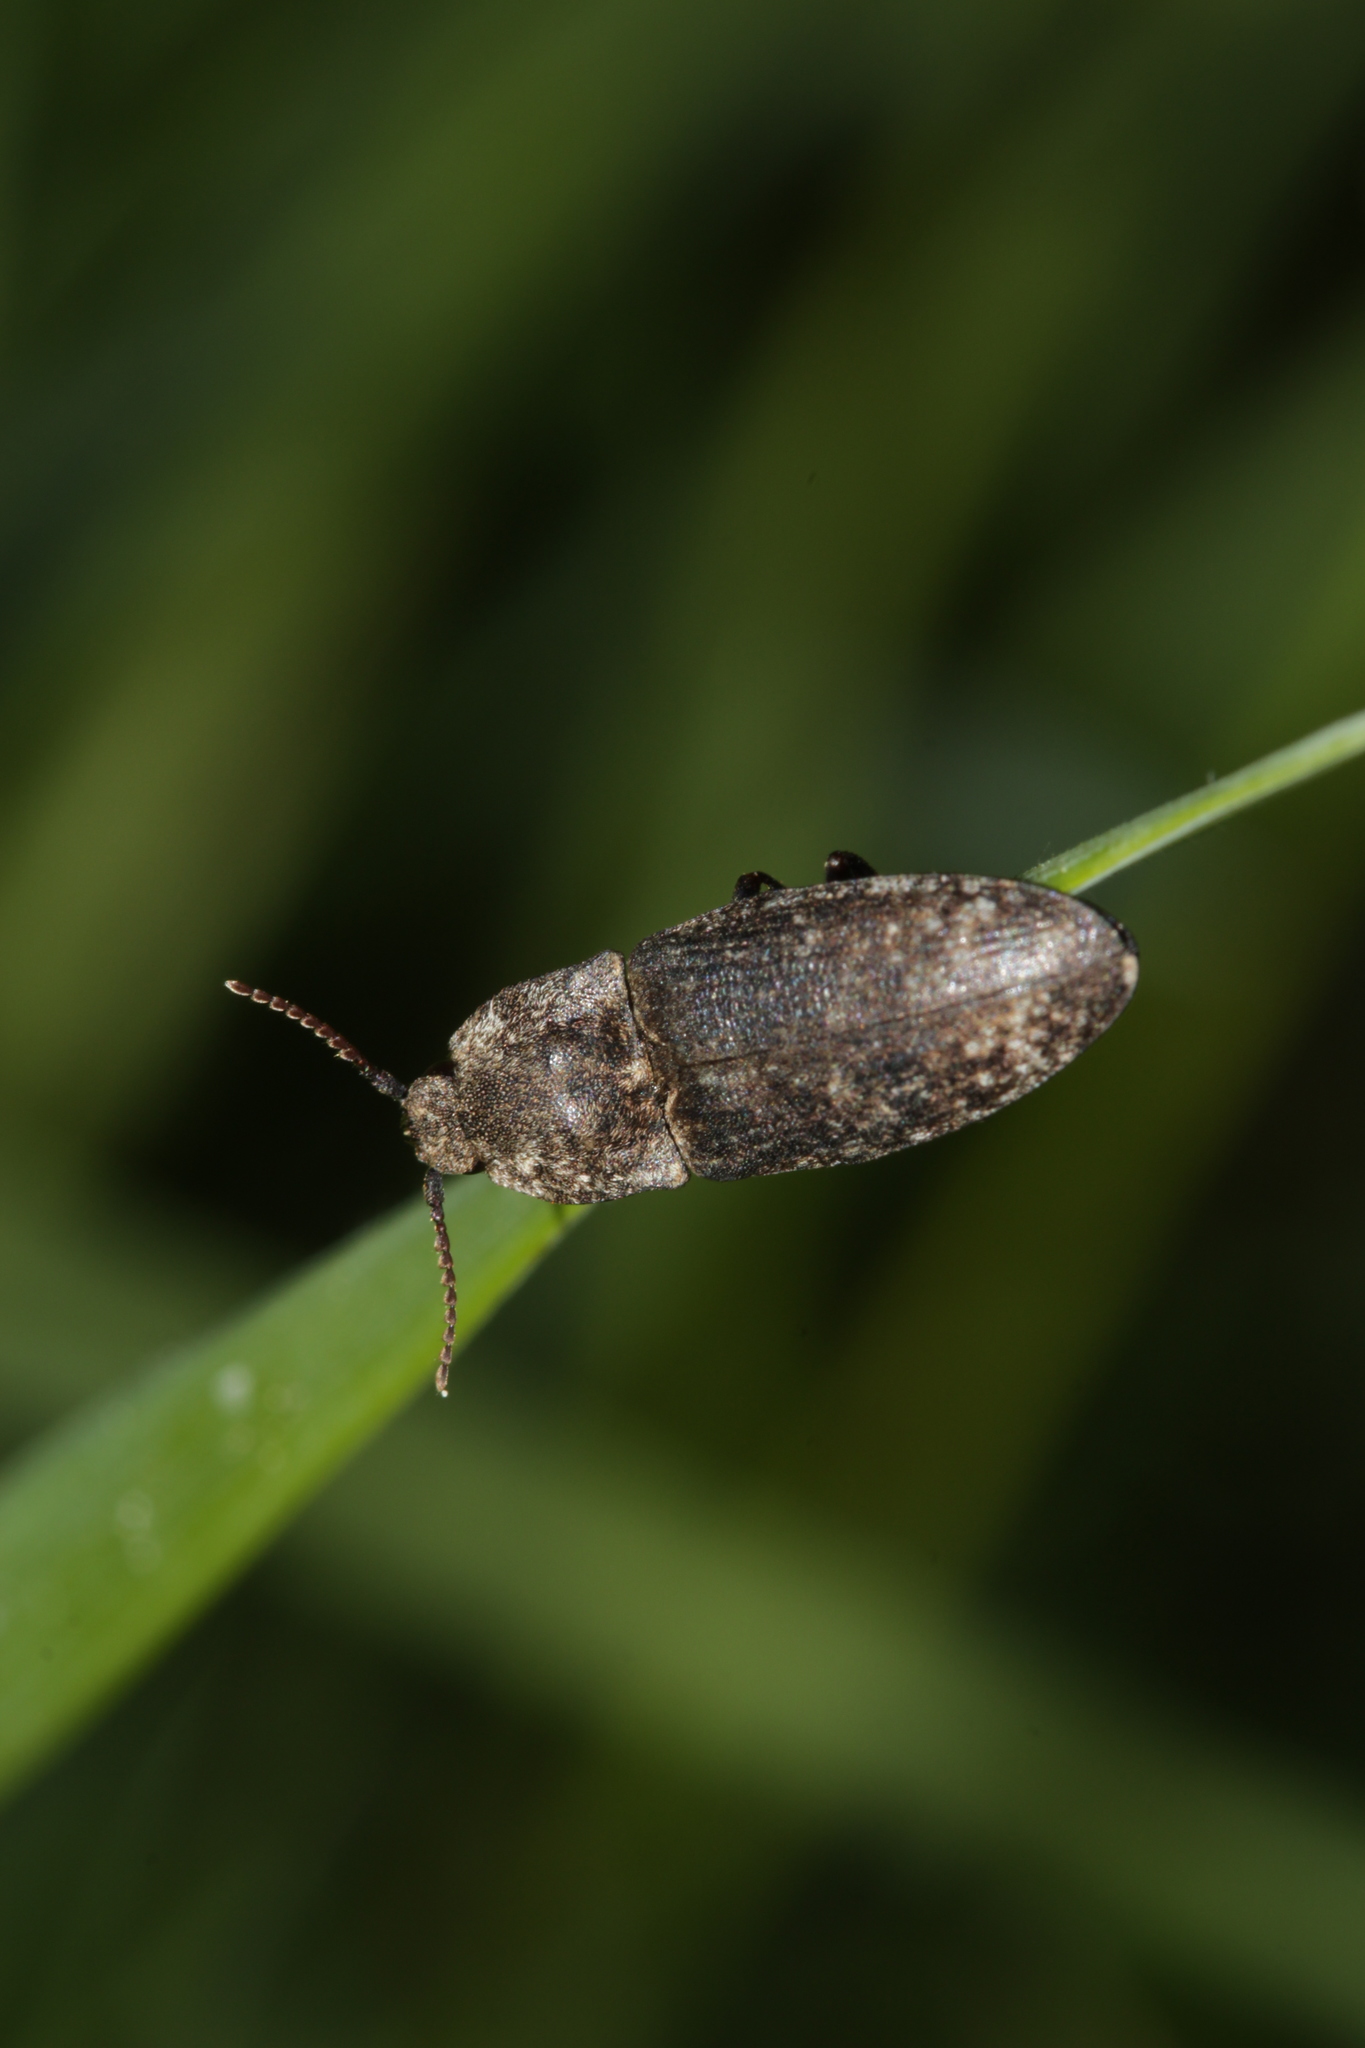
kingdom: Animalia
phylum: Arthropoda
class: Insecta
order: Coleoptera
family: Elateridae
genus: Agrypnus
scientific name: Agrypnus murinus
